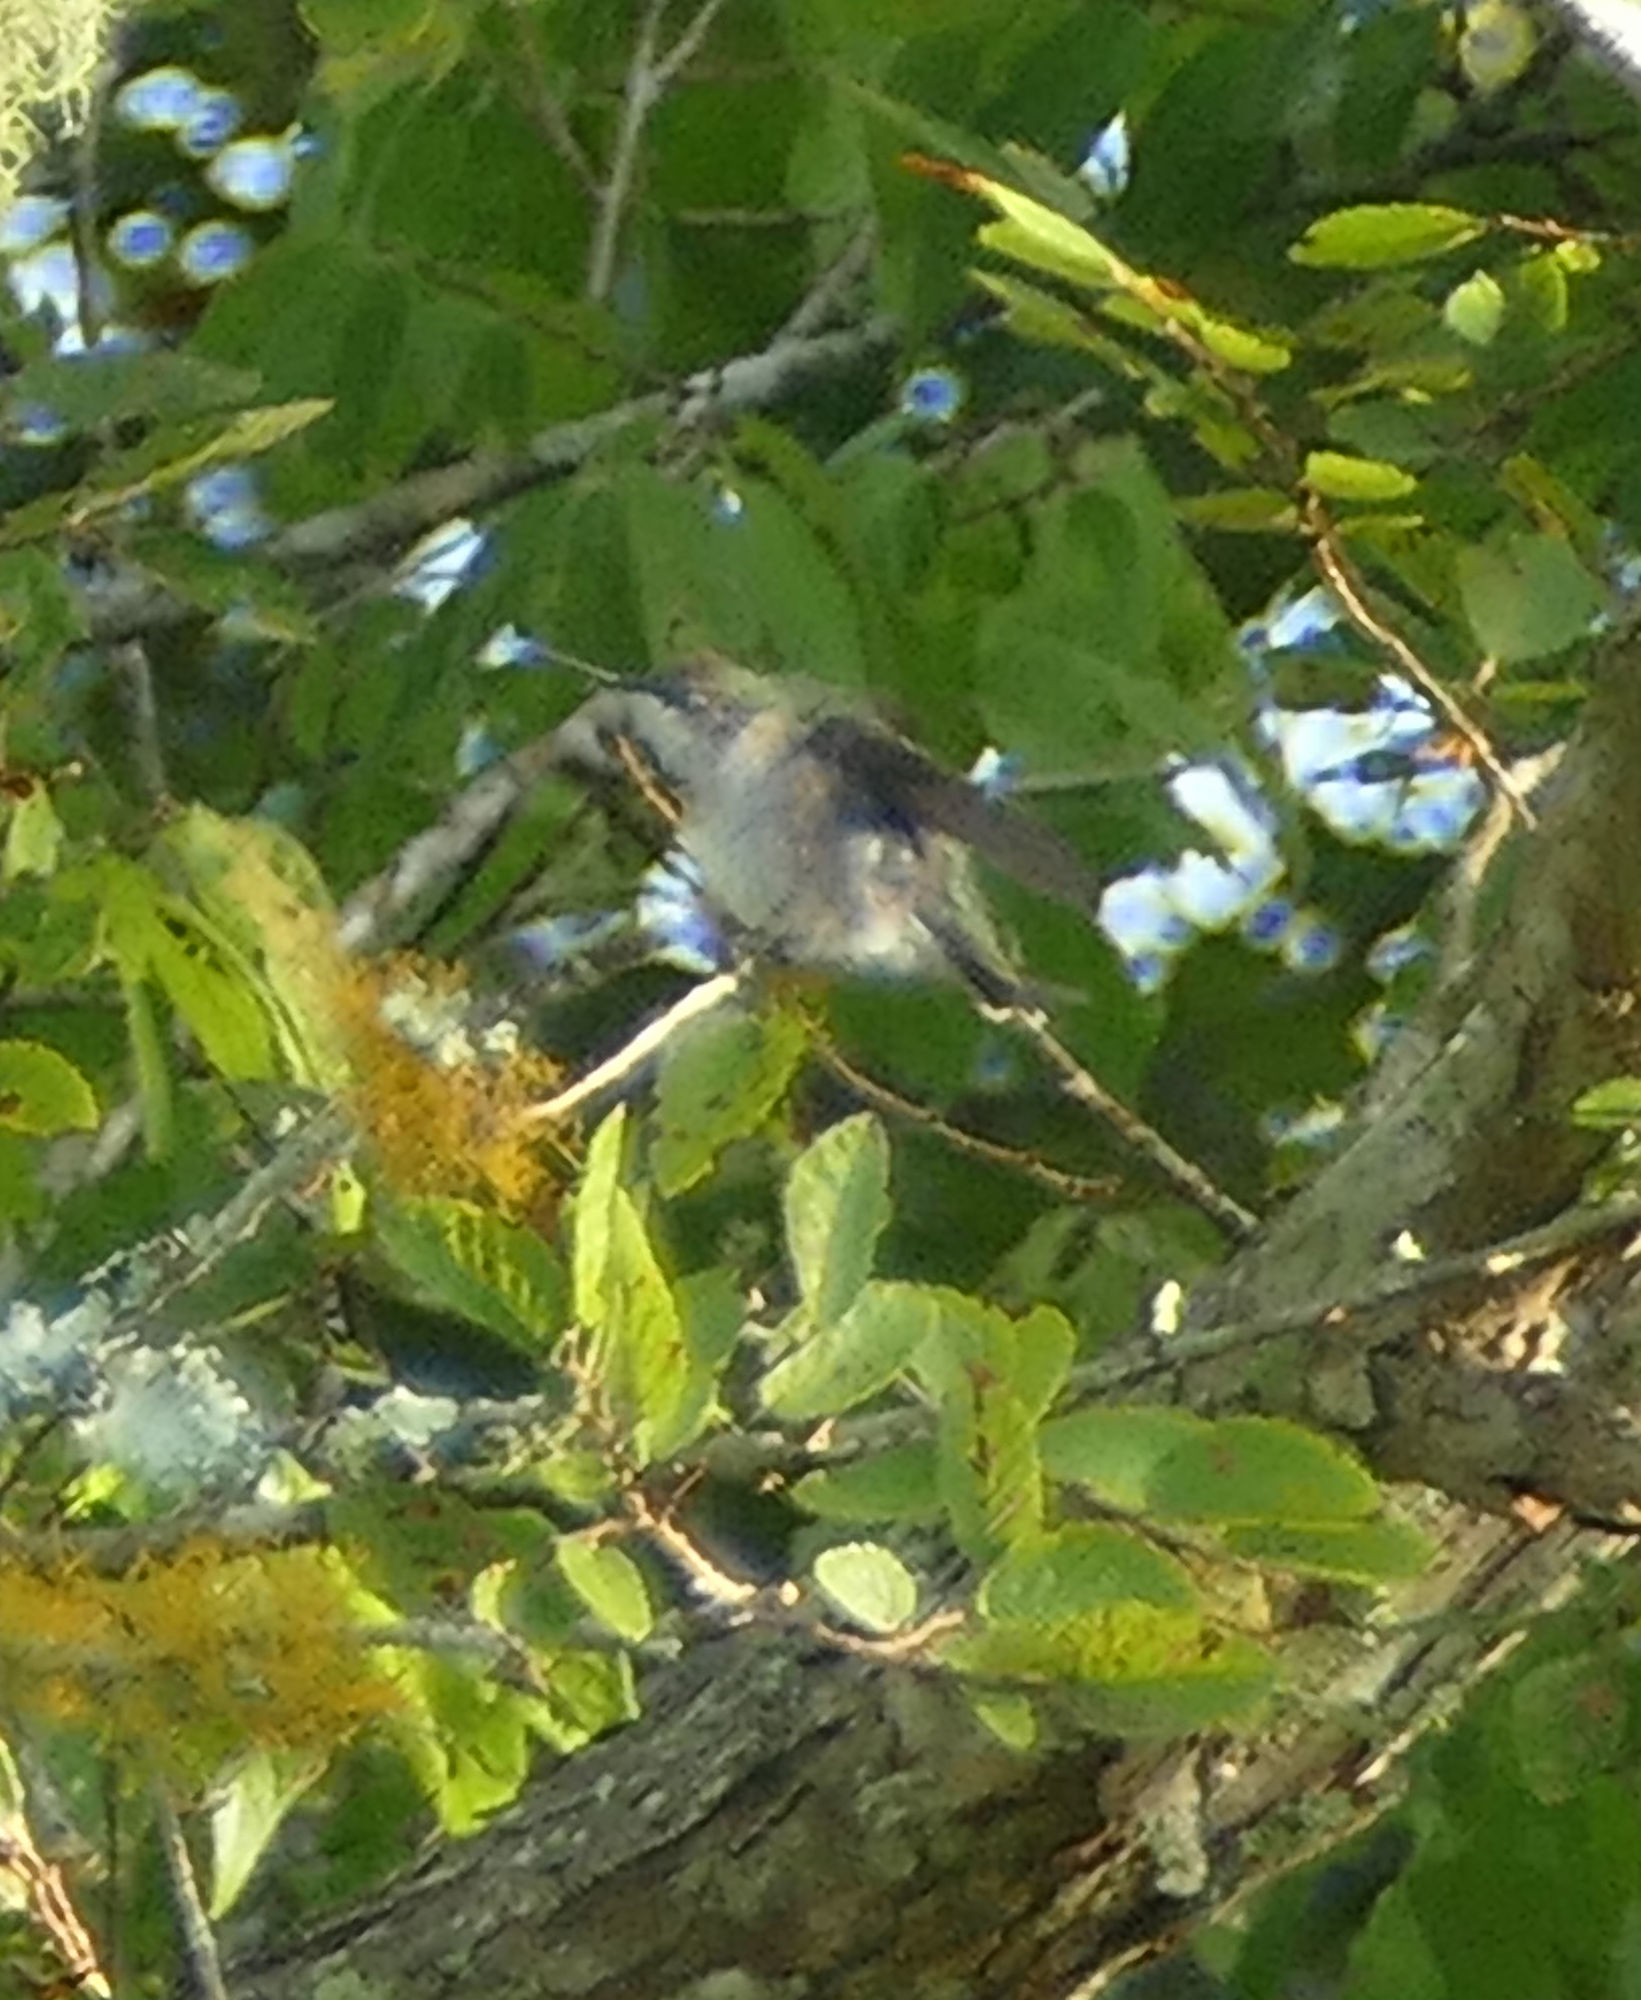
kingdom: Animalia
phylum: Chordata
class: Aves
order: Apodiformes
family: Trochilidae
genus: Archilochus
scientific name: Archilochus colubris
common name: Ruby-throated hummingbird
